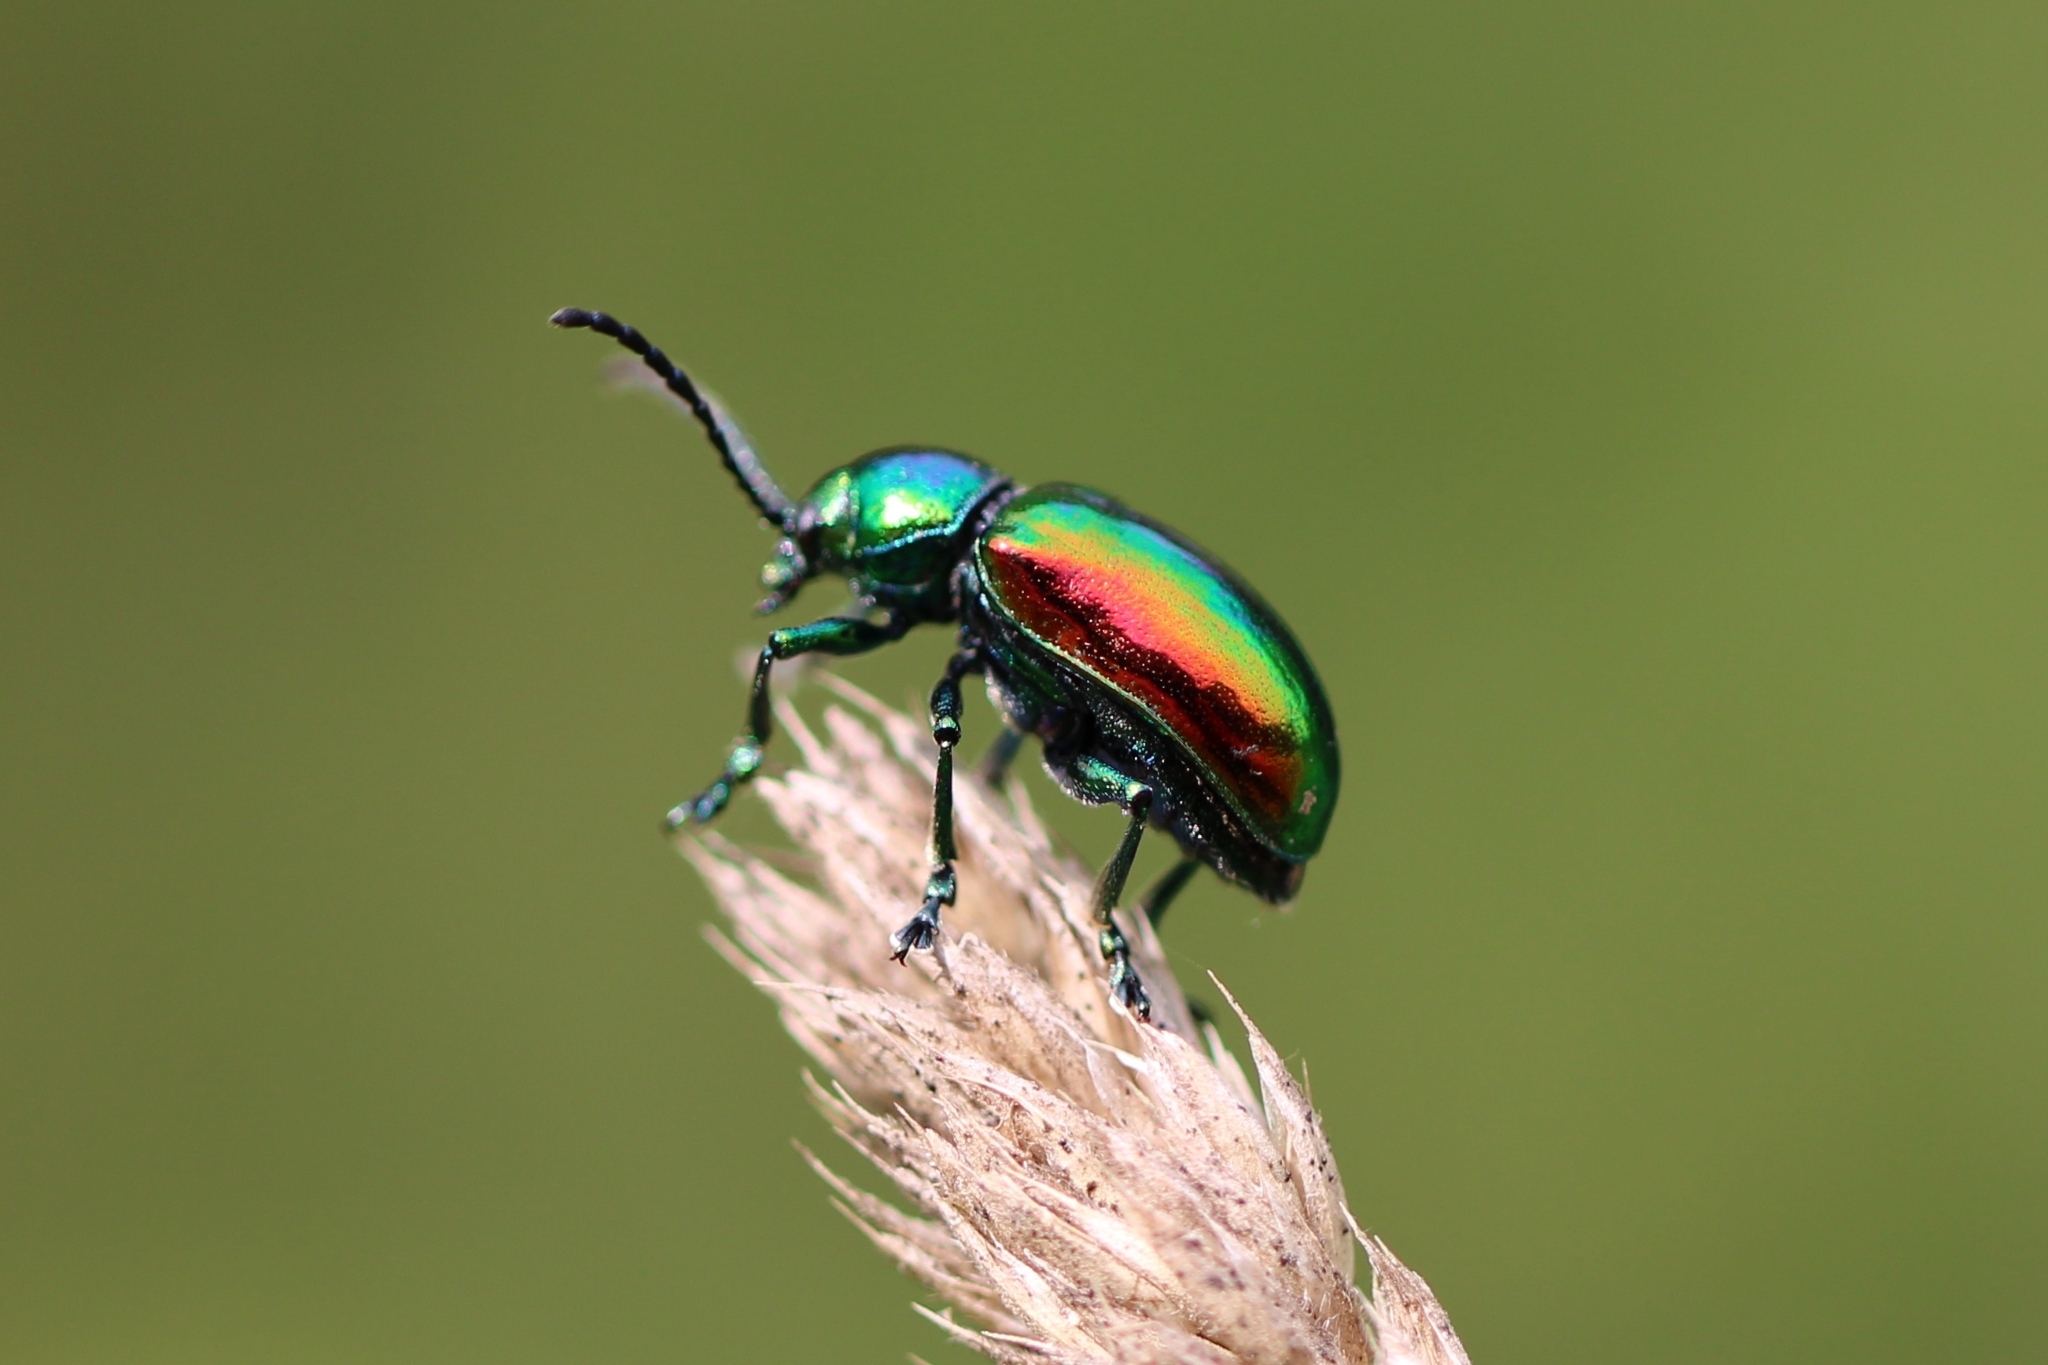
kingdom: Animalia
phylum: Arthropoda
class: Insecta
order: Coleoptera
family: Chrysomelidae
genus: Chrysochus
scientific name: Chrysochus auratus
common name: Dogbane leaf beetle
